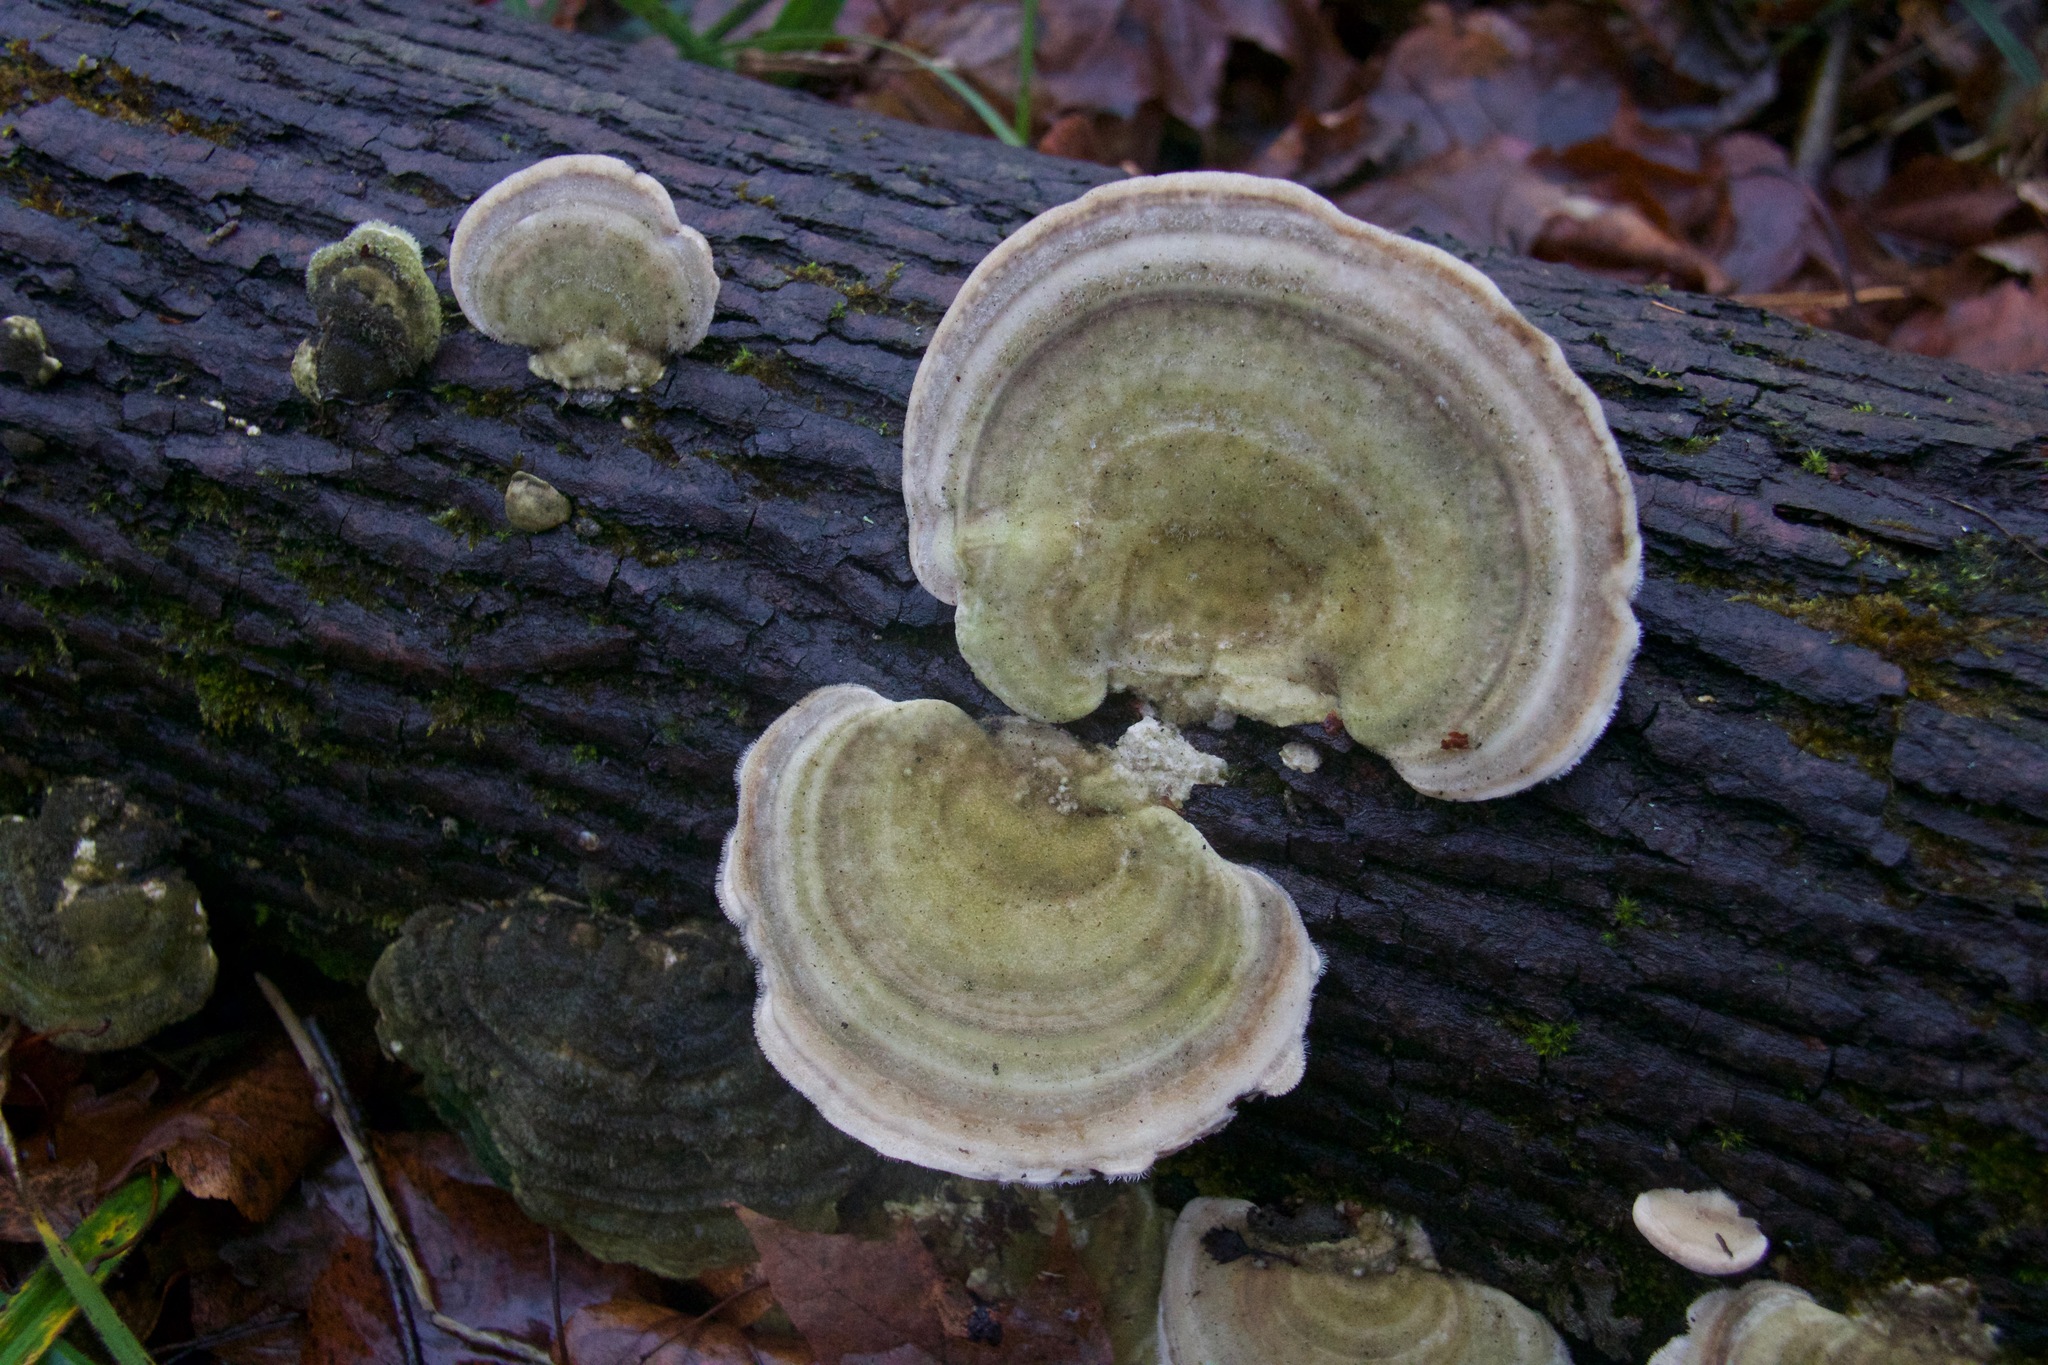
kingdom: Fungi
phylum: Basidiomycota
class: Agaricomycetes
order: Polyporales
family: Polyporaceae
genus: Trametes
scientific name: Trametes hirsuta
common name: Hairy bracket
